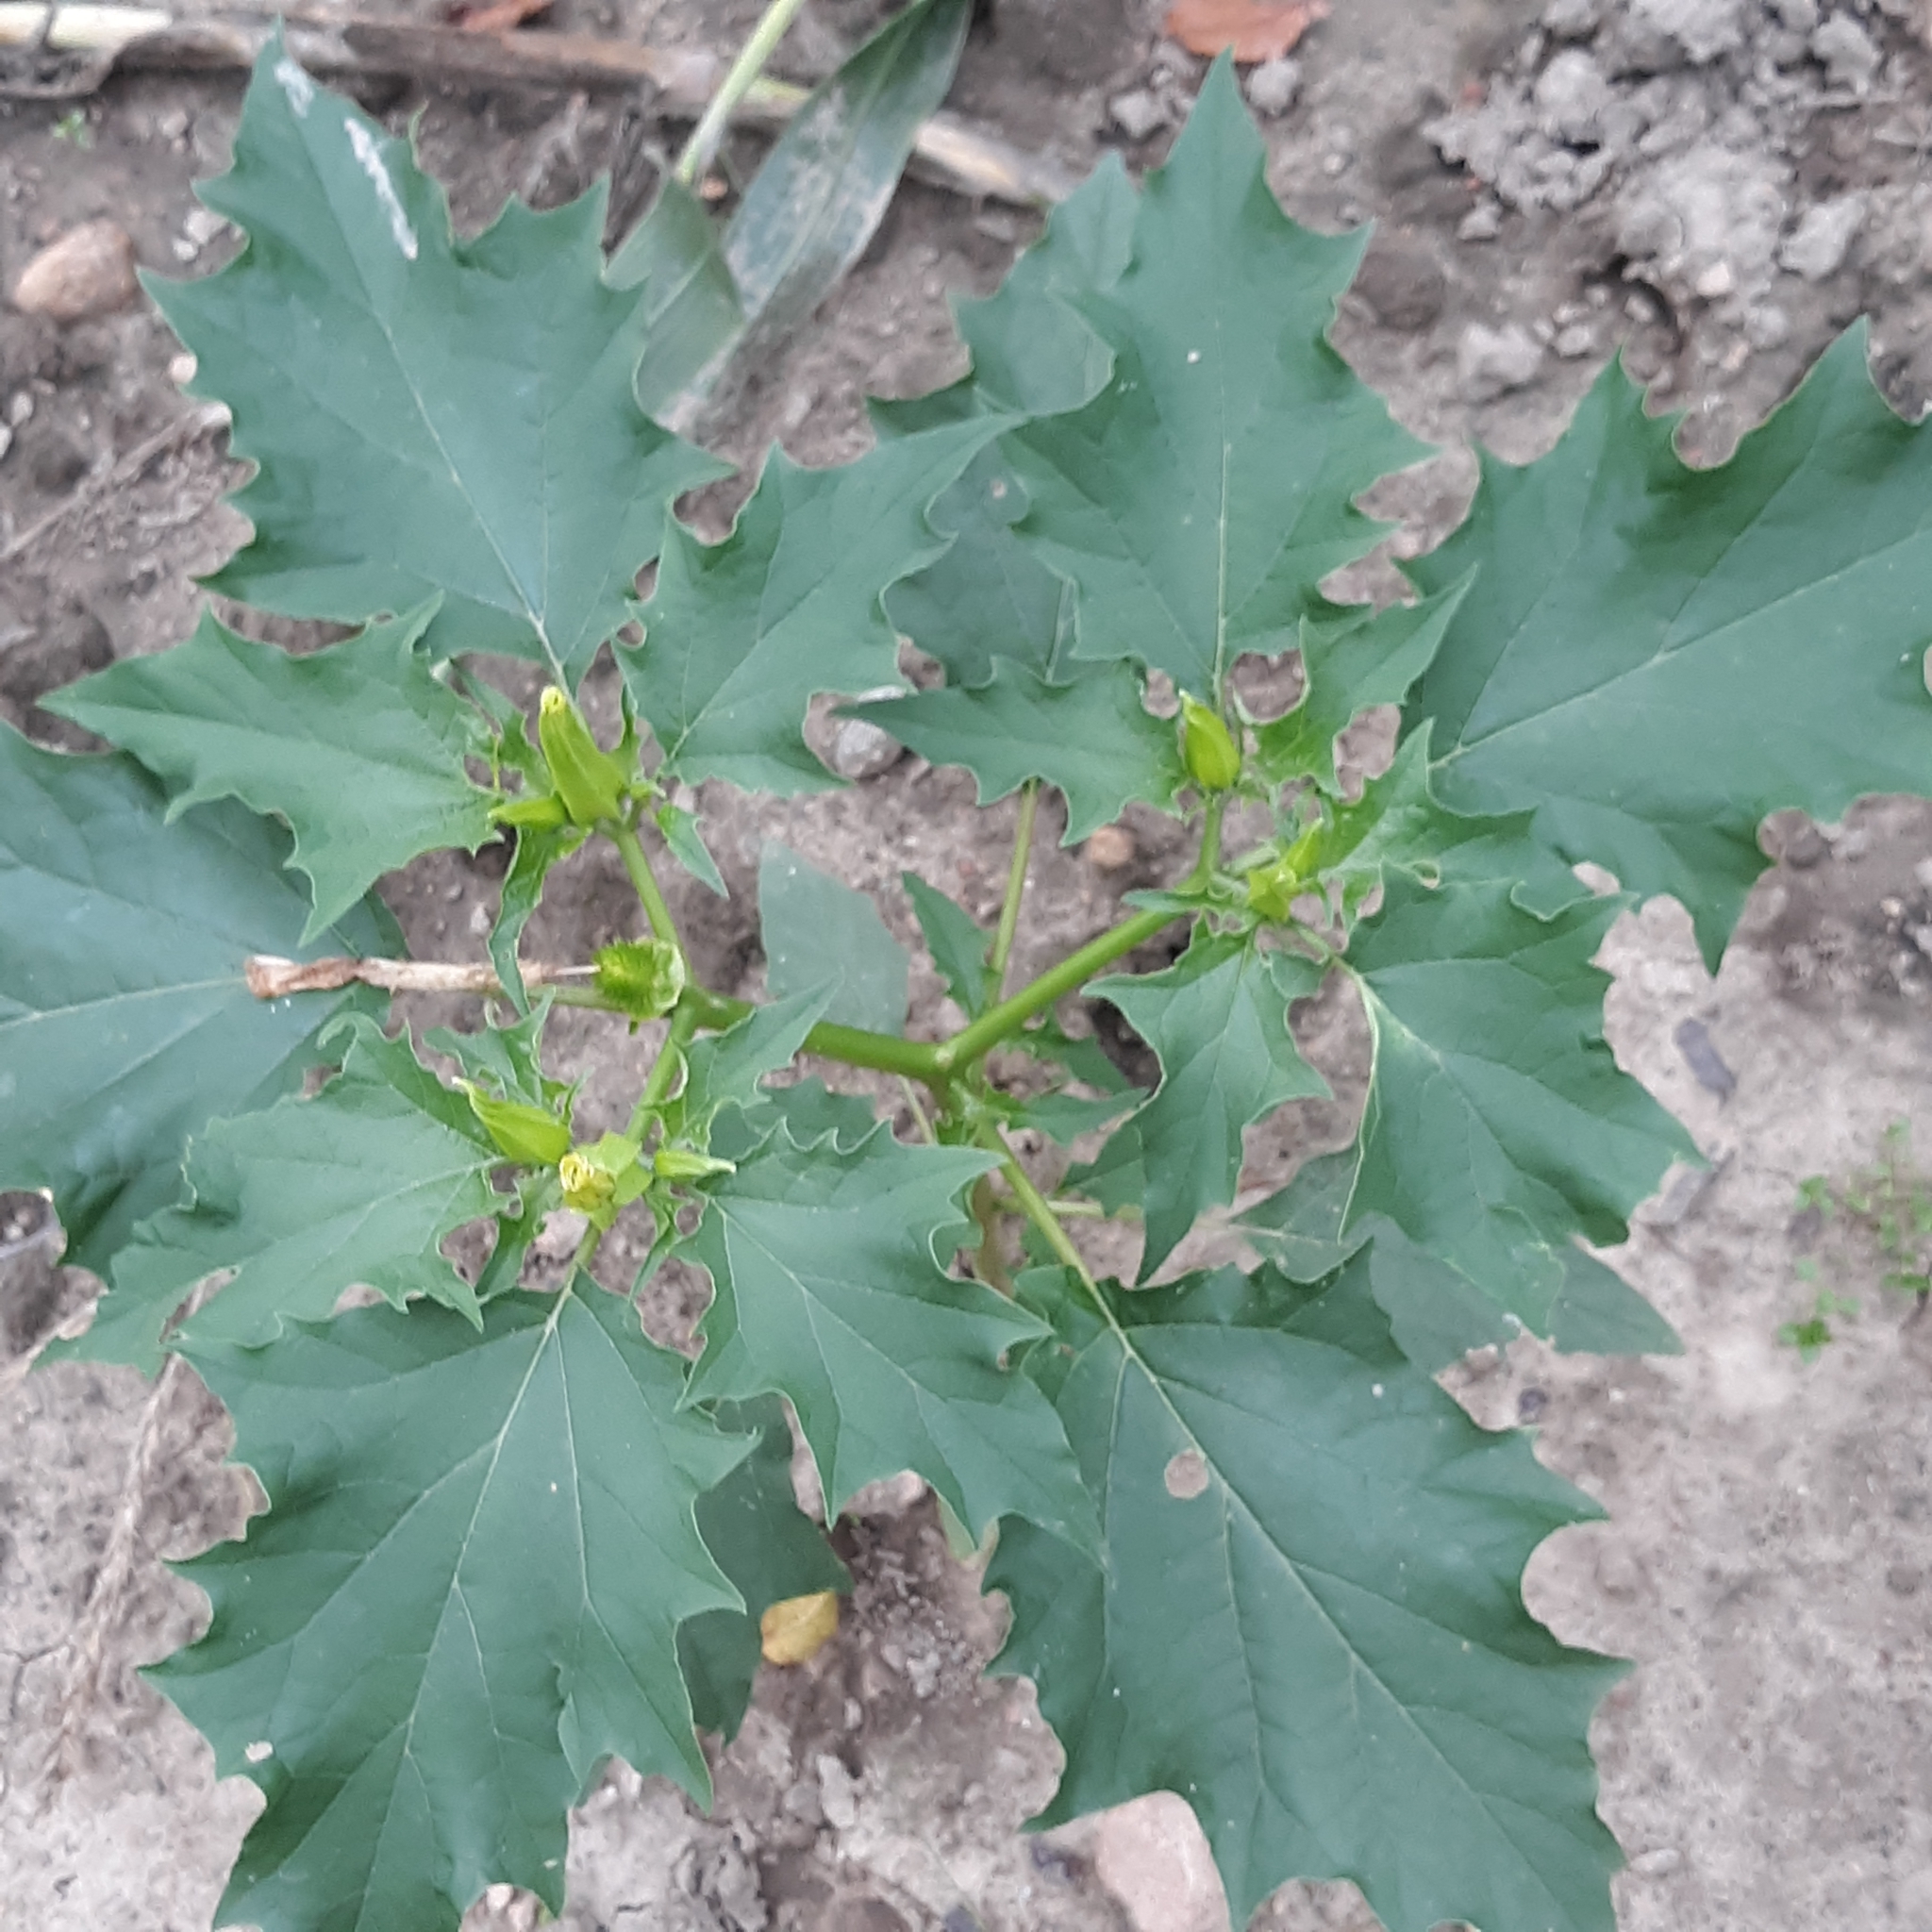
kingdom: Plantae
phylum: Tracheophyta
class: Magnoliopsida
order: Solanales
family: Solanaceae
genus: Datura
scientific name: Datura stramonium
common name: Thorn-apple
